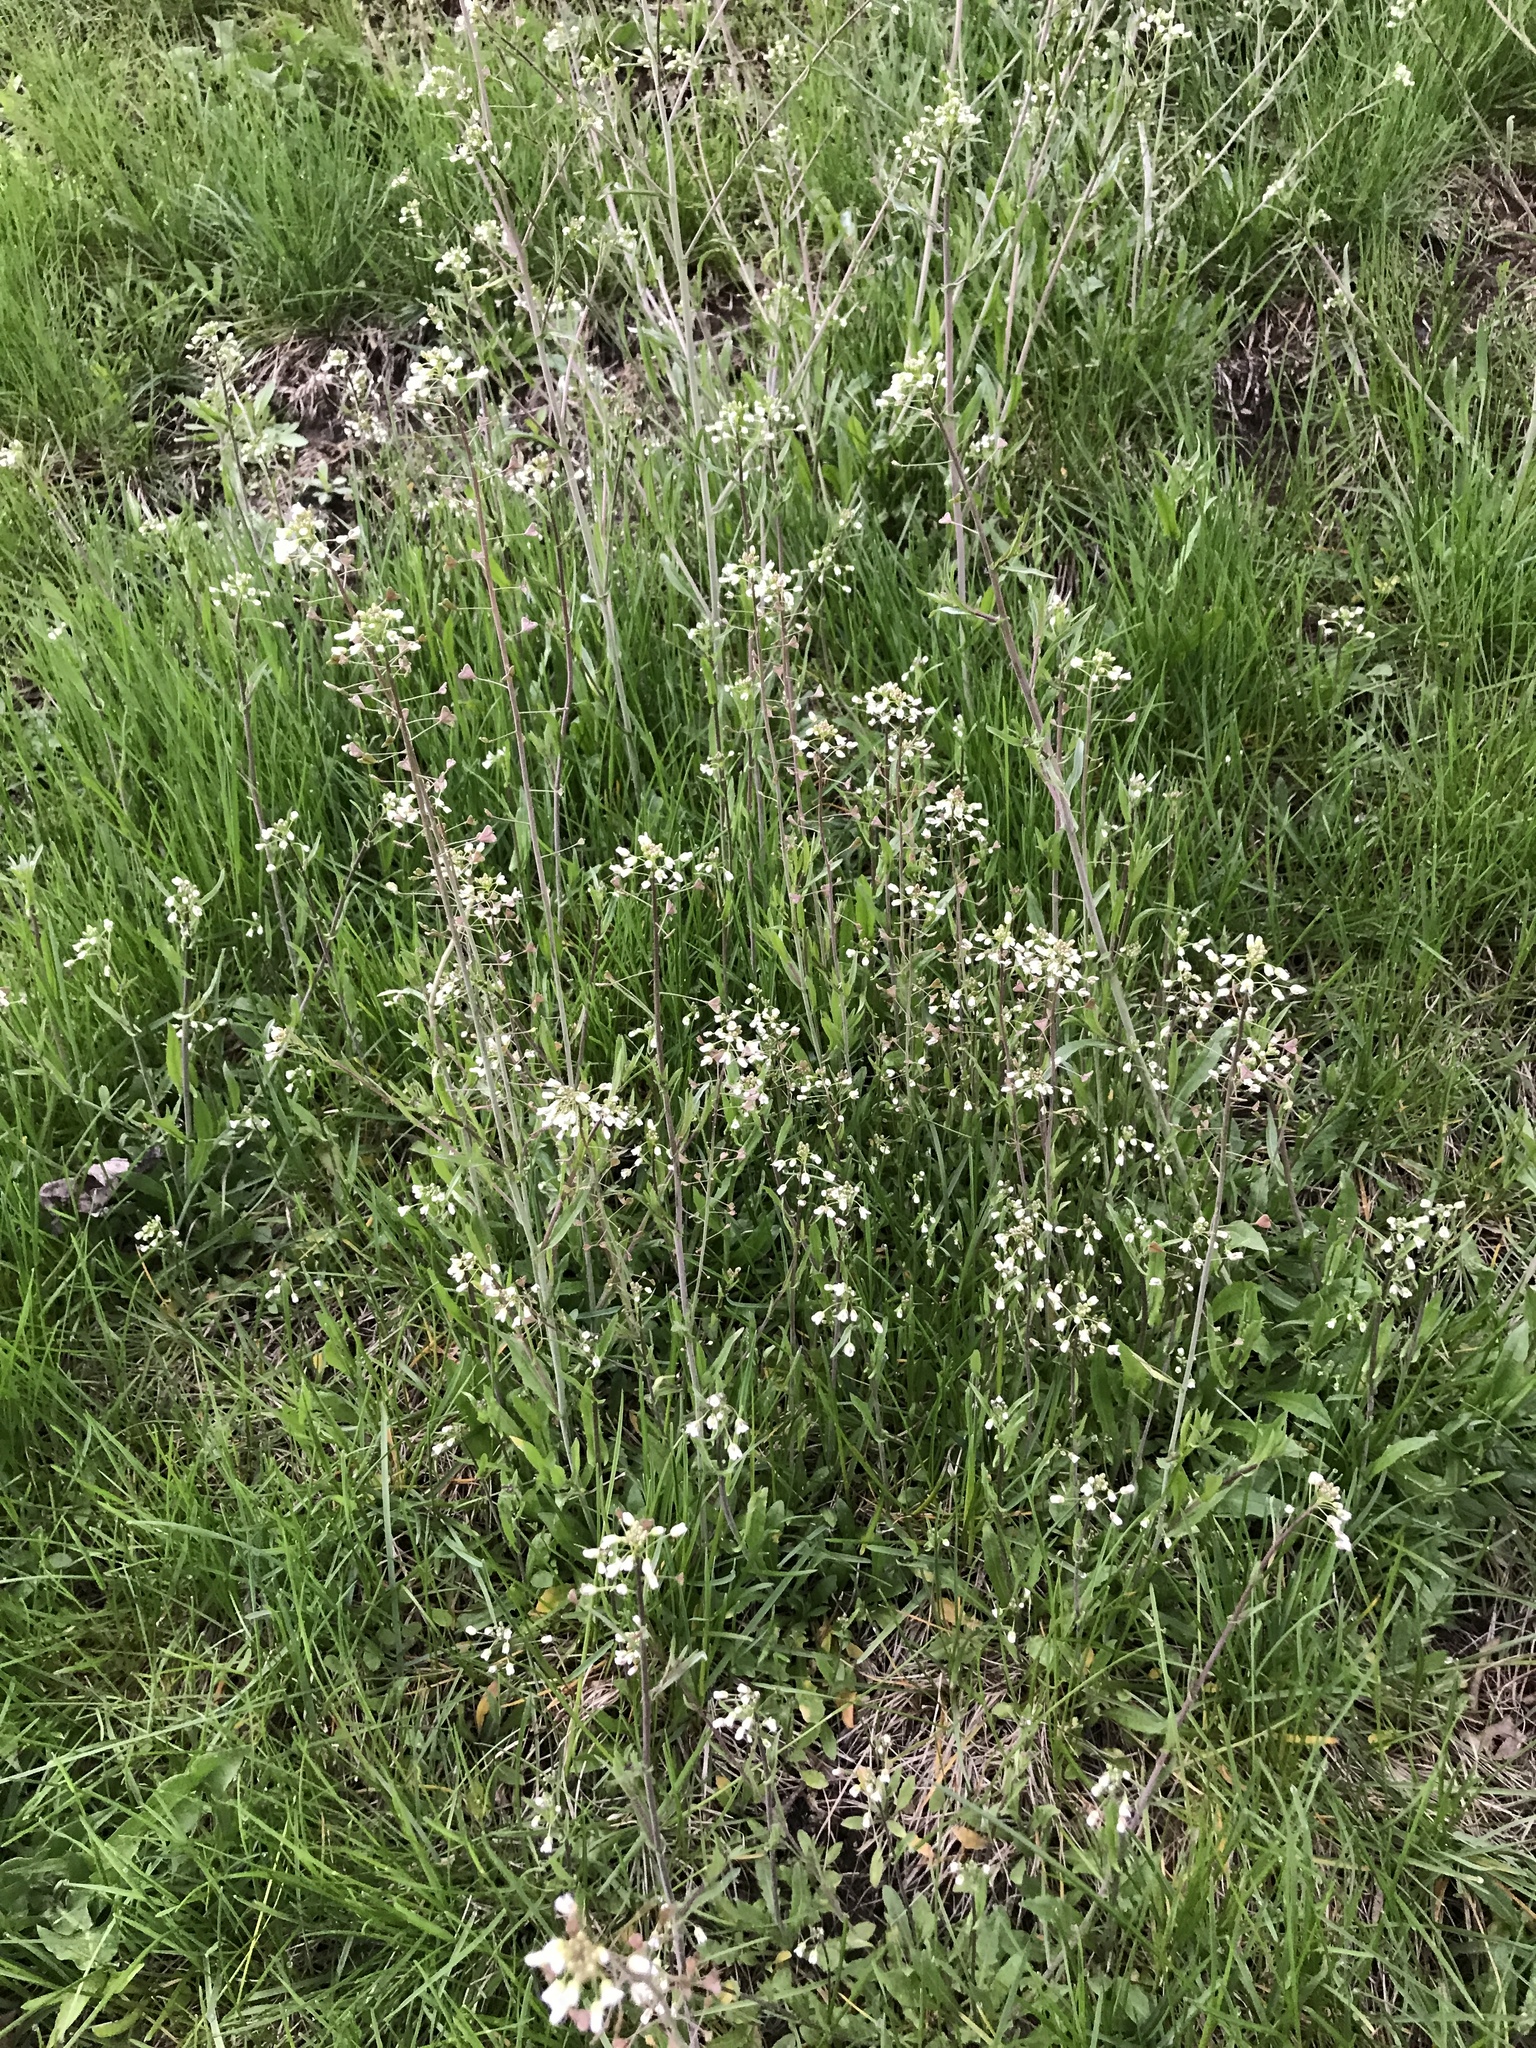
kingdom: Plantae
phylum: Tracheophyta
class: Magnoliopsida
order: Brassicales
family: Brassicaceae
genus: Capsella
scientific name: Capsella bursa-pastoris
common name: Shepherd's purse
